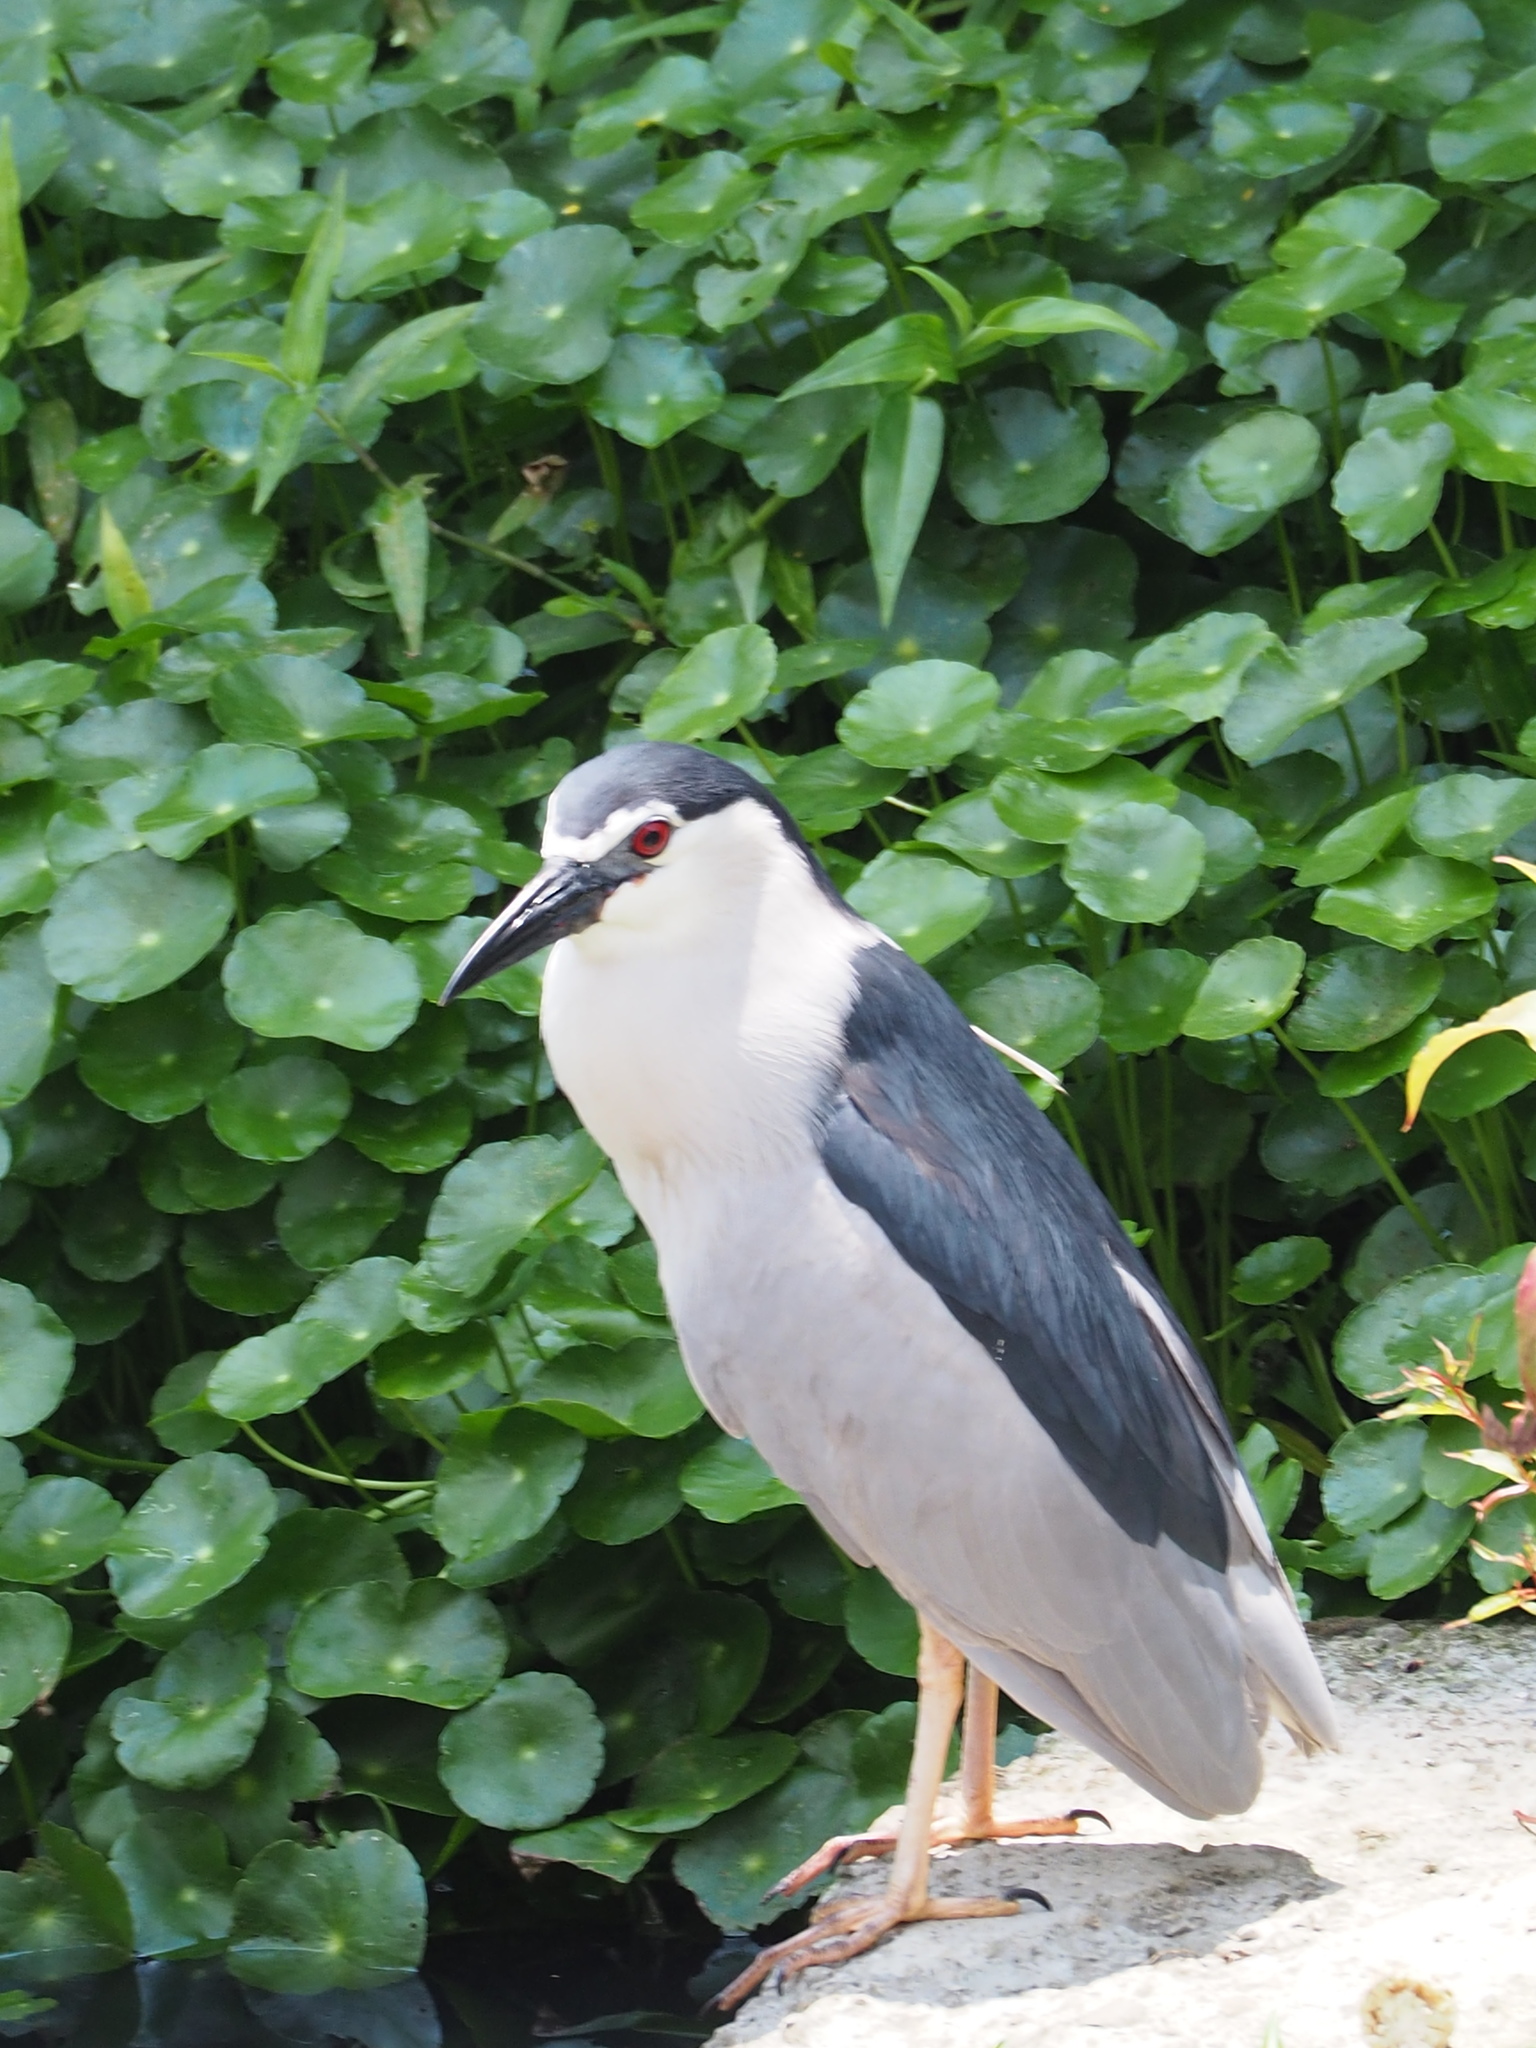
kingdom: Animalia
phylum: Chordata
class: Aves
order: Pelecaniformes
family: Ardeidae
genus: Nycticorax
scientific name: Nycticorax nycticorax
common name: Black-crowned night heron
